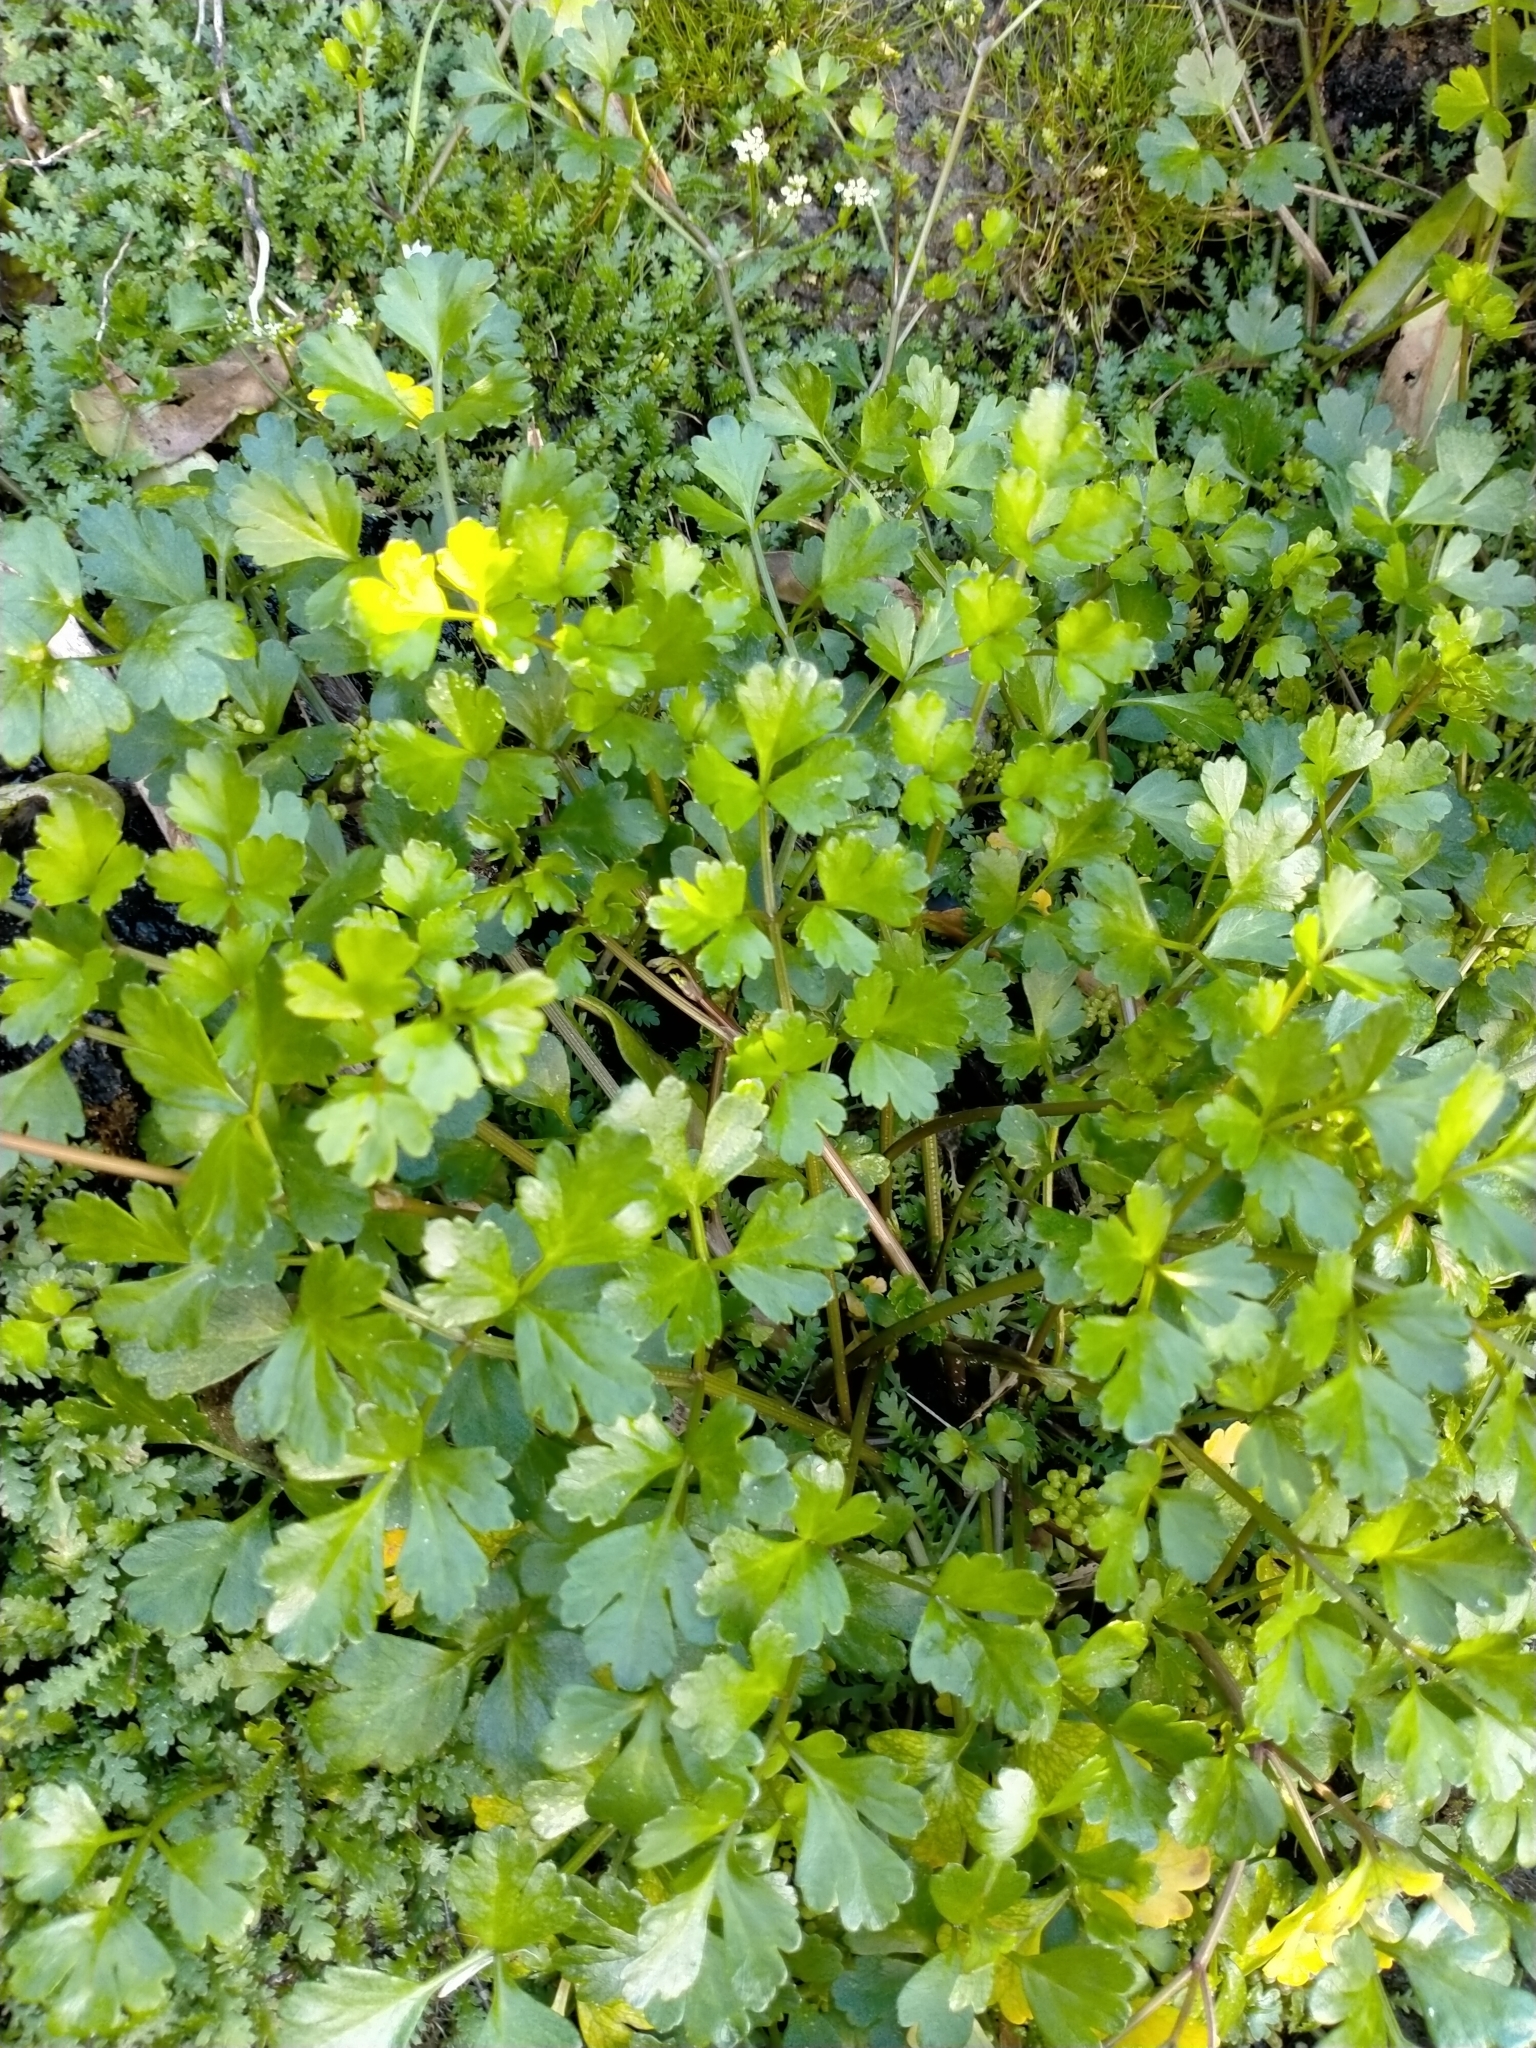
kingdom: Plantae
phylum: Tracheophyta
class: Magnoliopsida
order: Apiales
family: Apiaceae
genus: Apium
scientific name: Apium prostratum
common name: Prostrate marshwort
